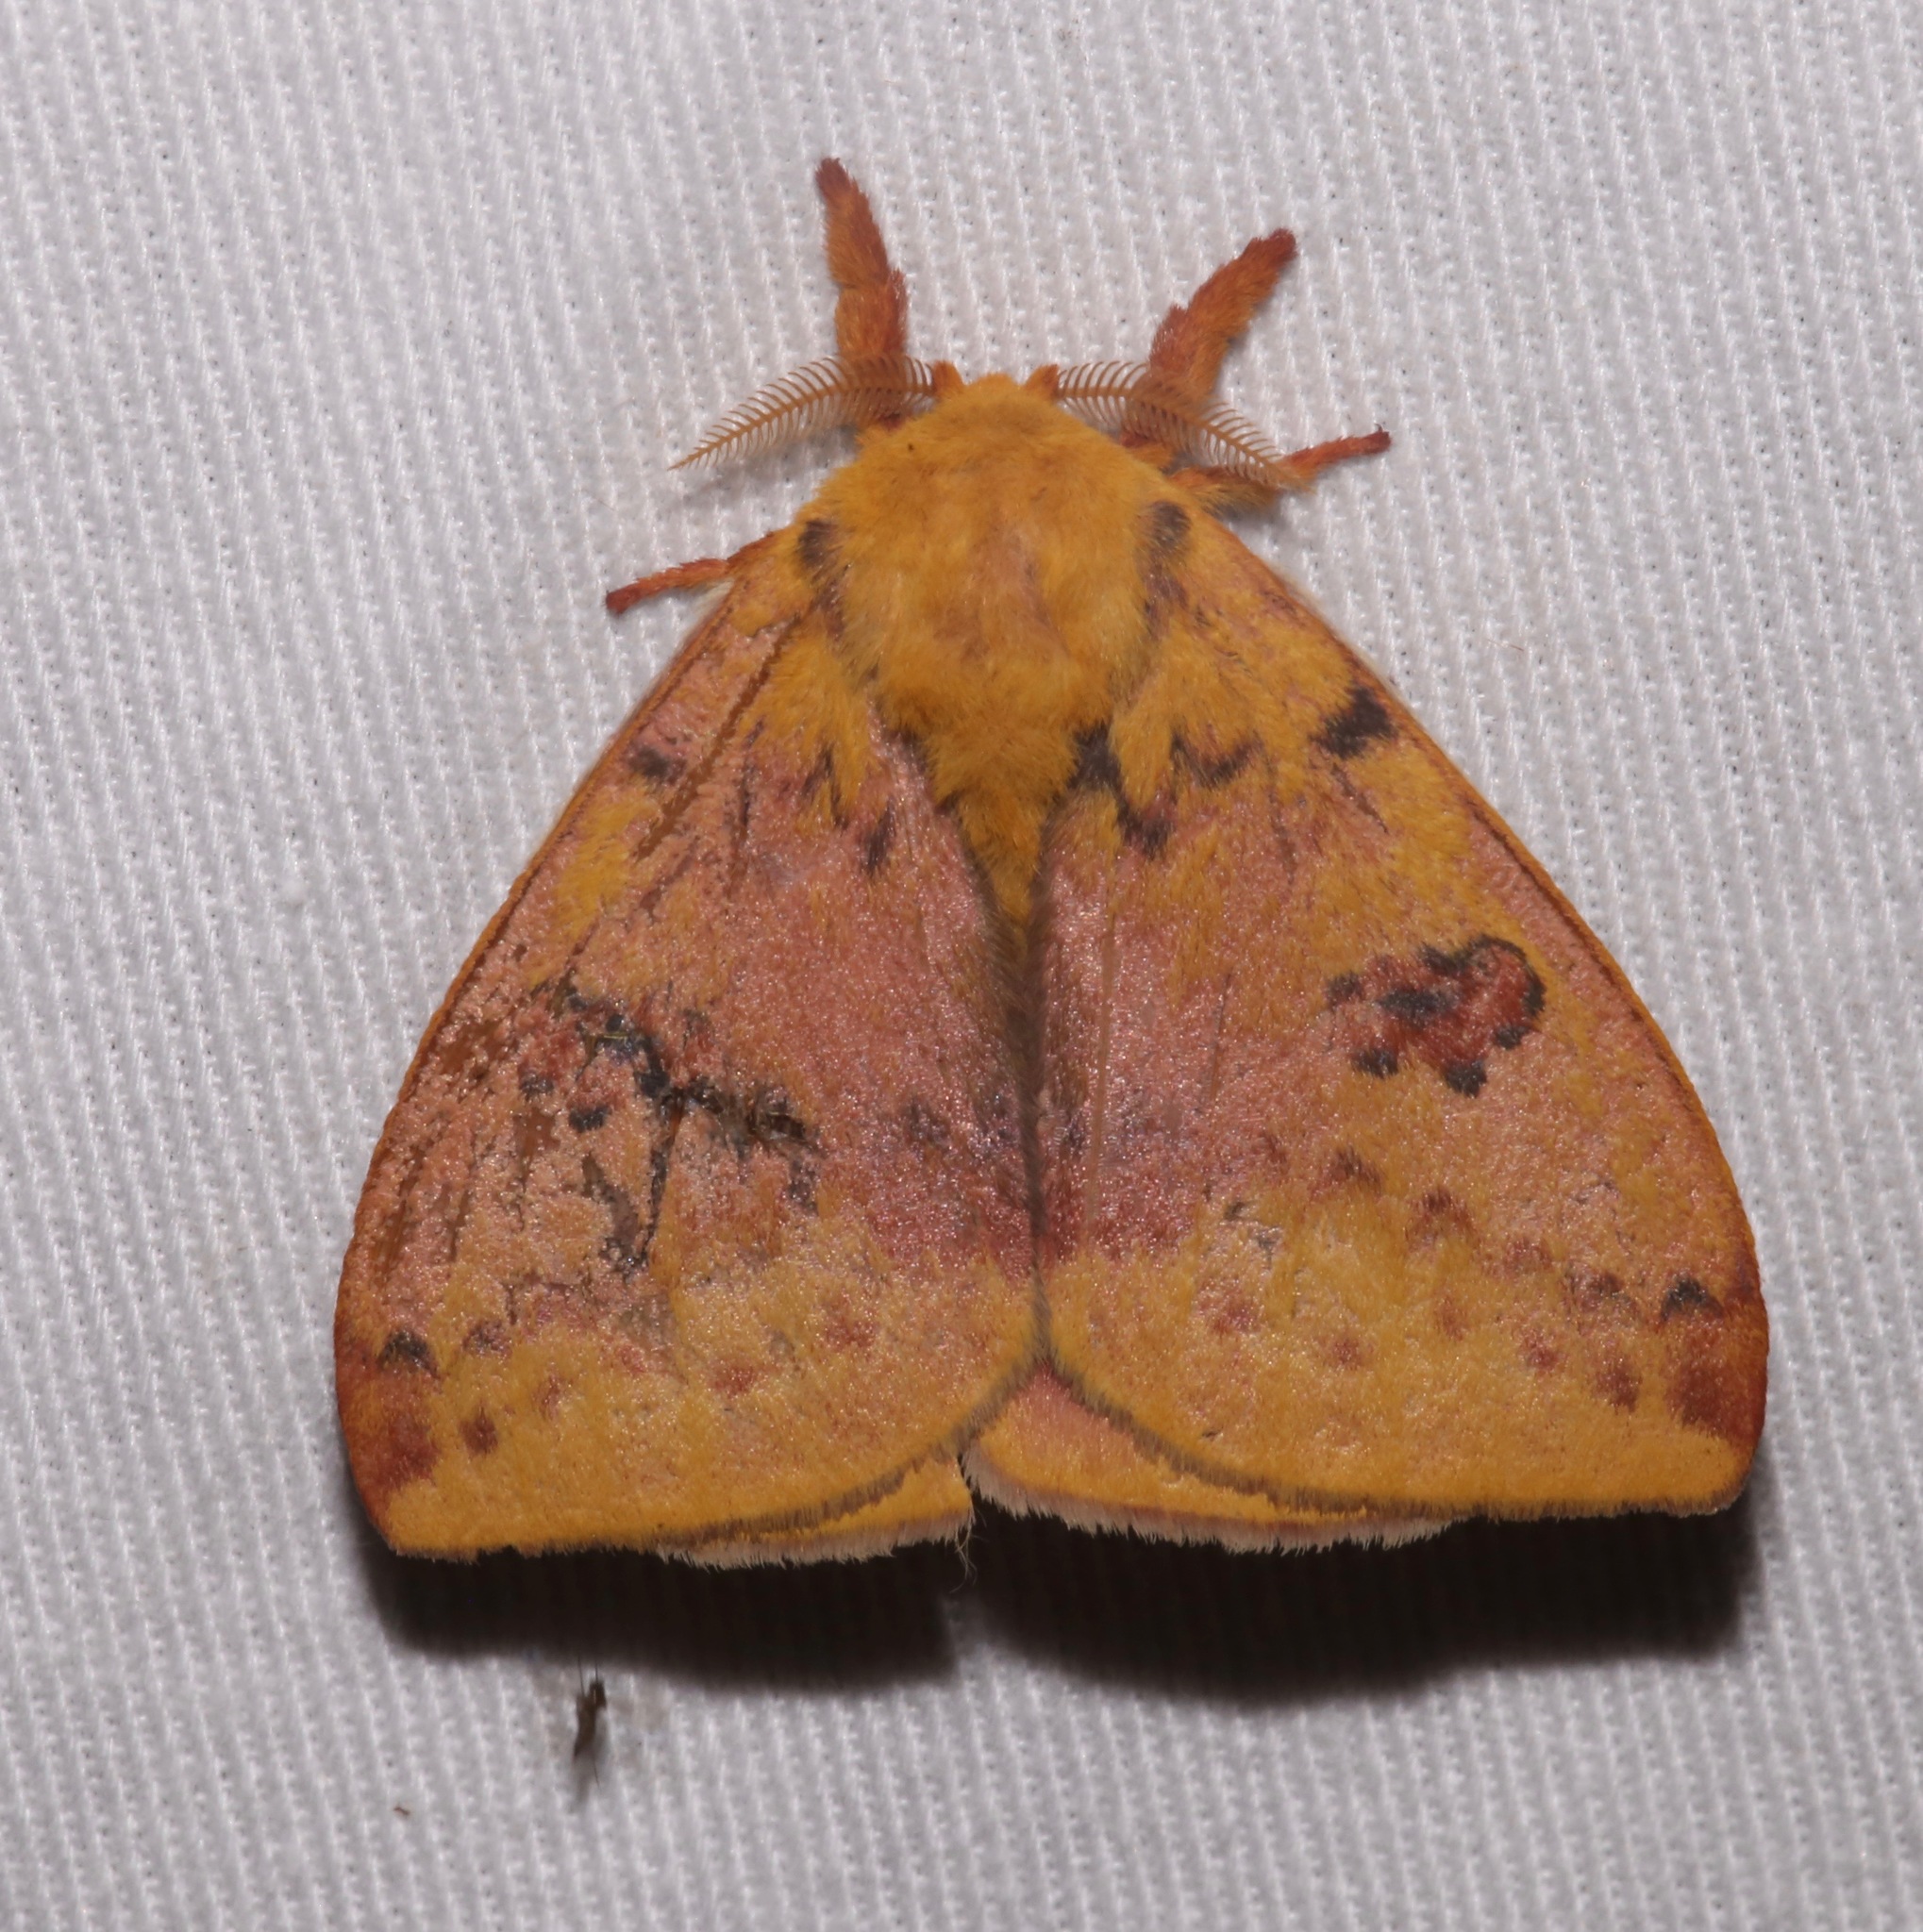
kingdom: Animalia
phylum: Arthropoda
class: Insecta
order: Lepidoptera
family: Saturniidae
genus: Automeris
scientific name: Automeris io
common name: Io moth
